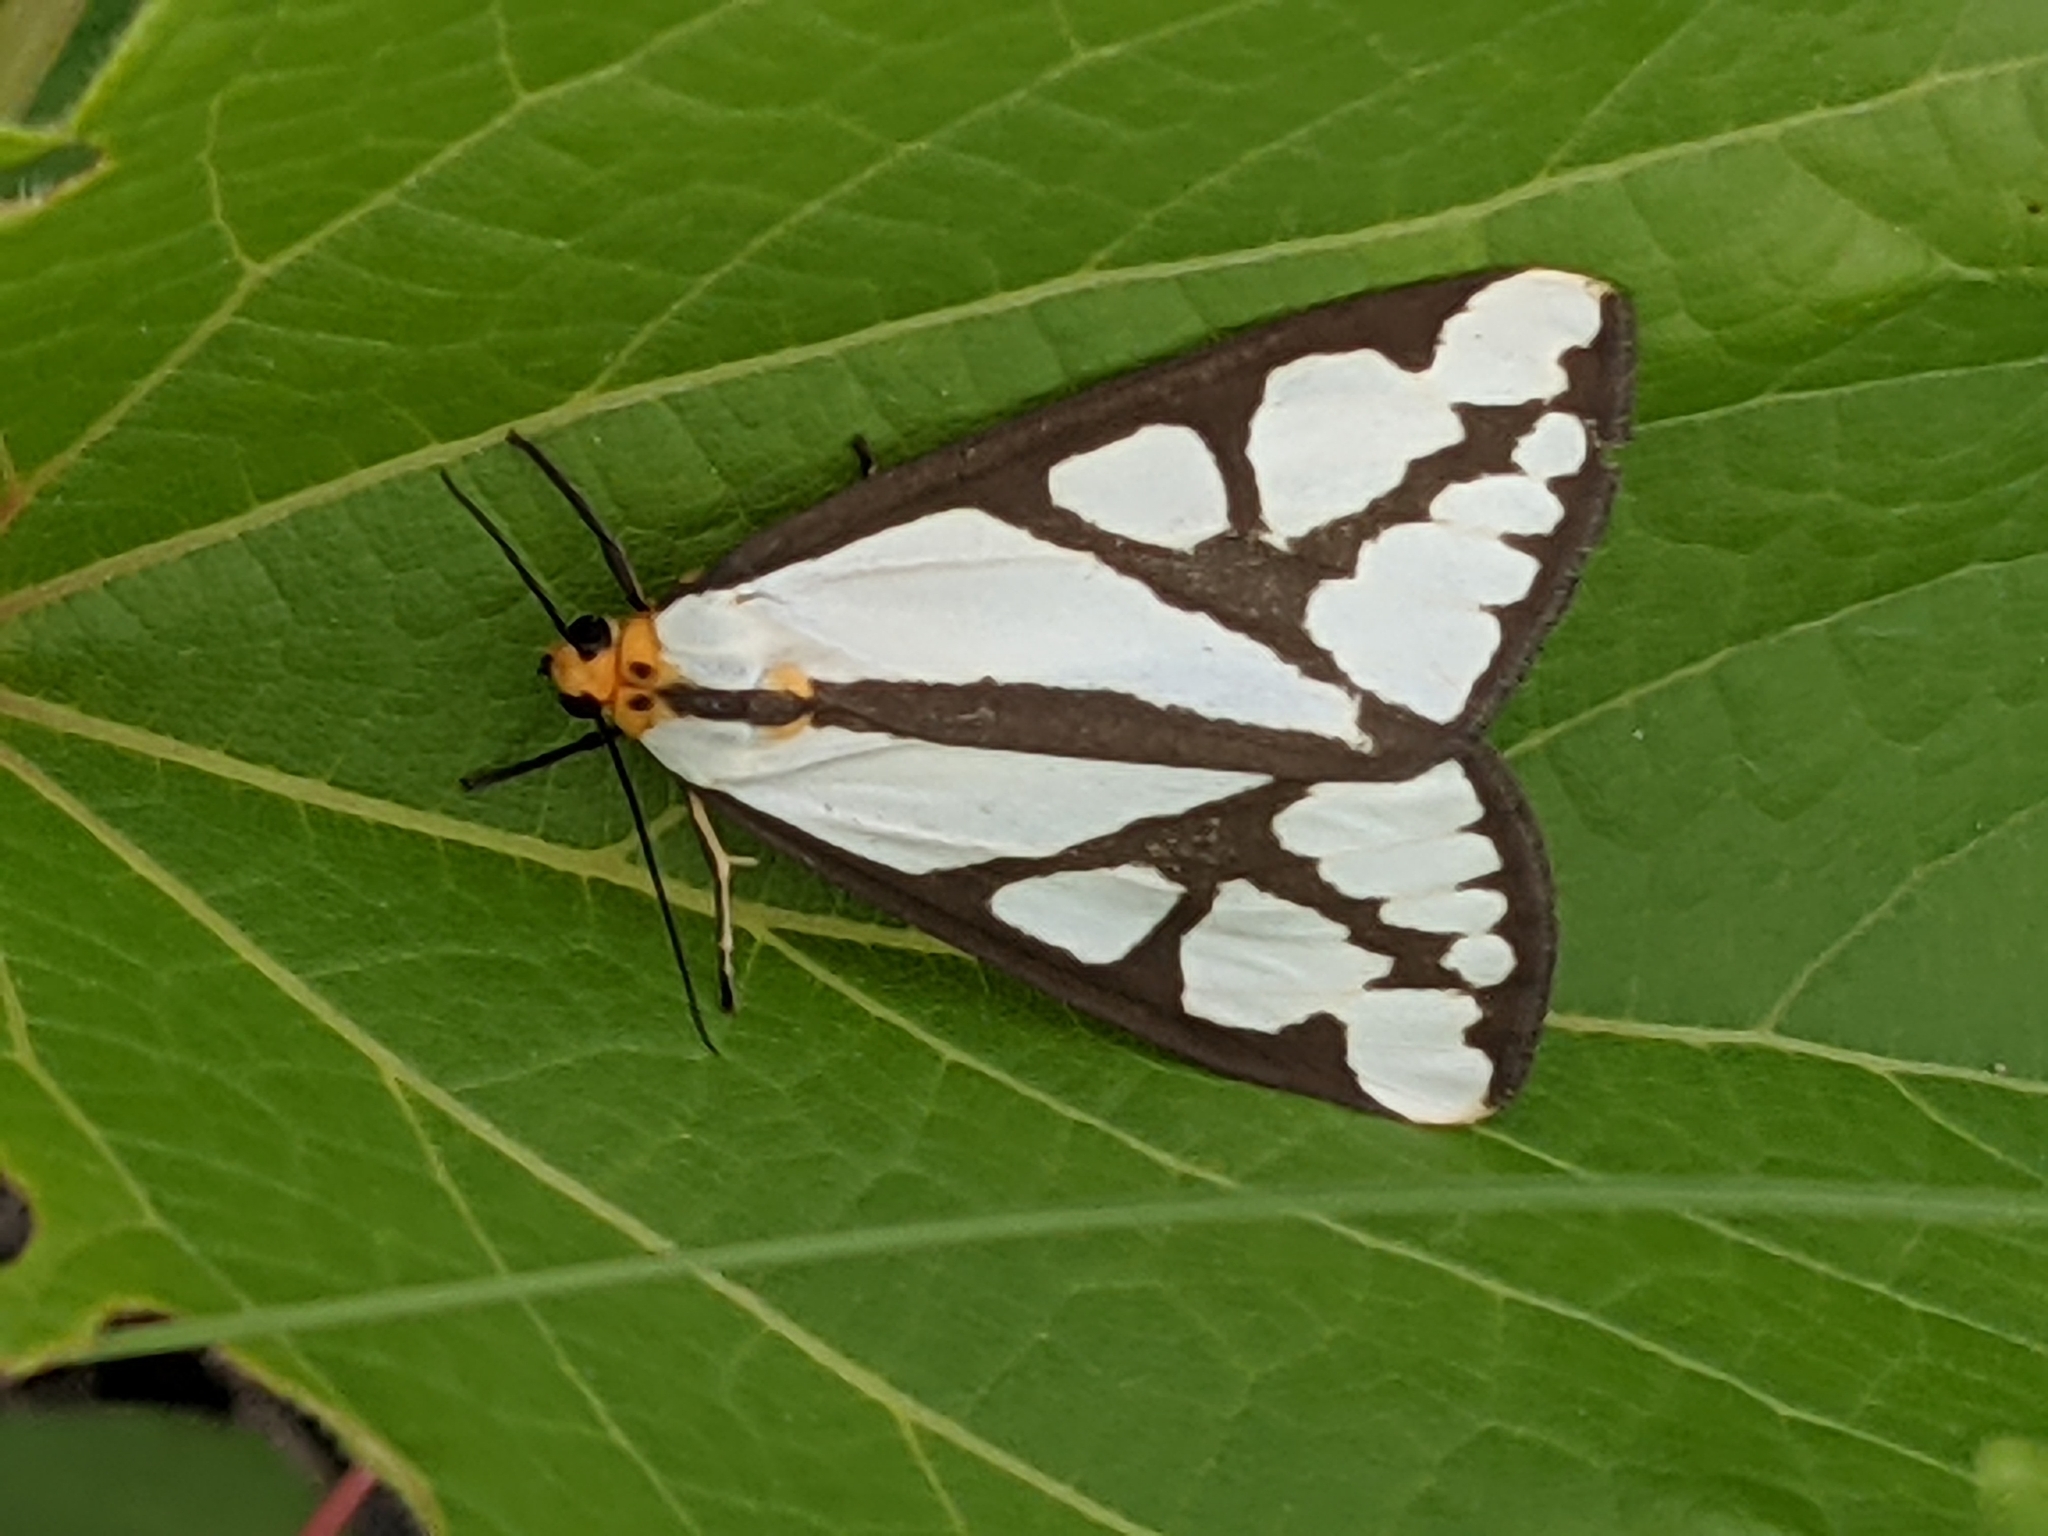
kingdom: Animalia
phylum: Arthropoda
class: Insecta
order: Lepidoptera
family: Erebidae
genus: Haploa
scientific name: Haploa reversa
